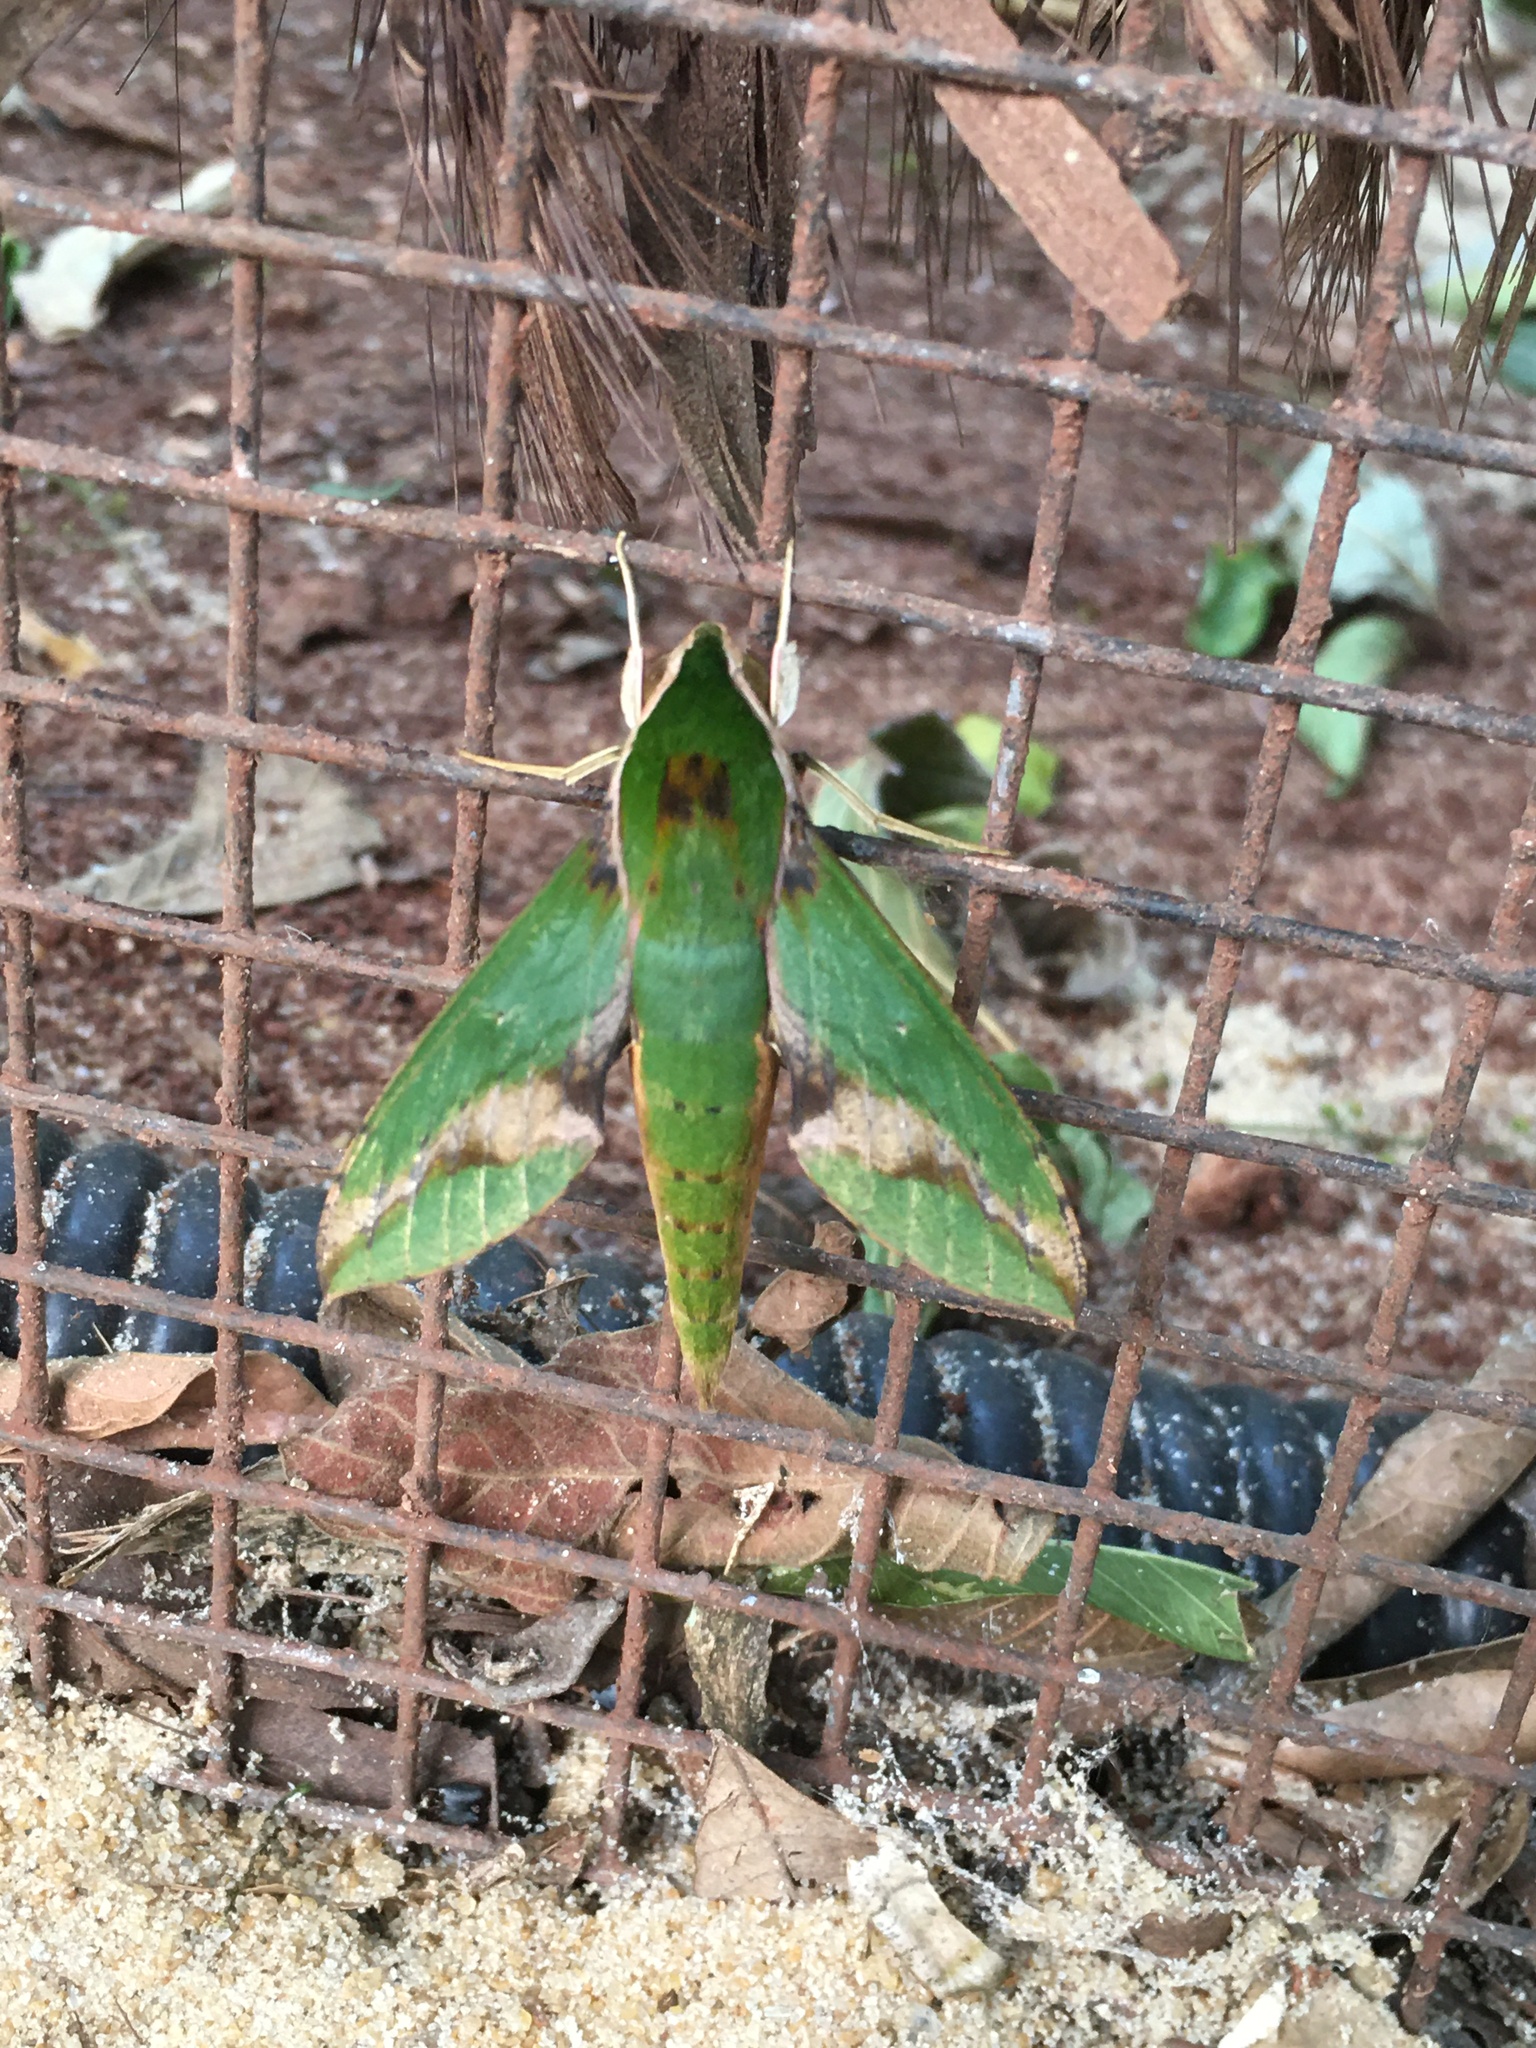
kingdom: Animalia
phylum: Arthropoda
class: Insecta
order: Lepidoptera
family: Sphingidae
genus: Xylophanes
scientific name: Xylophanes chiron
